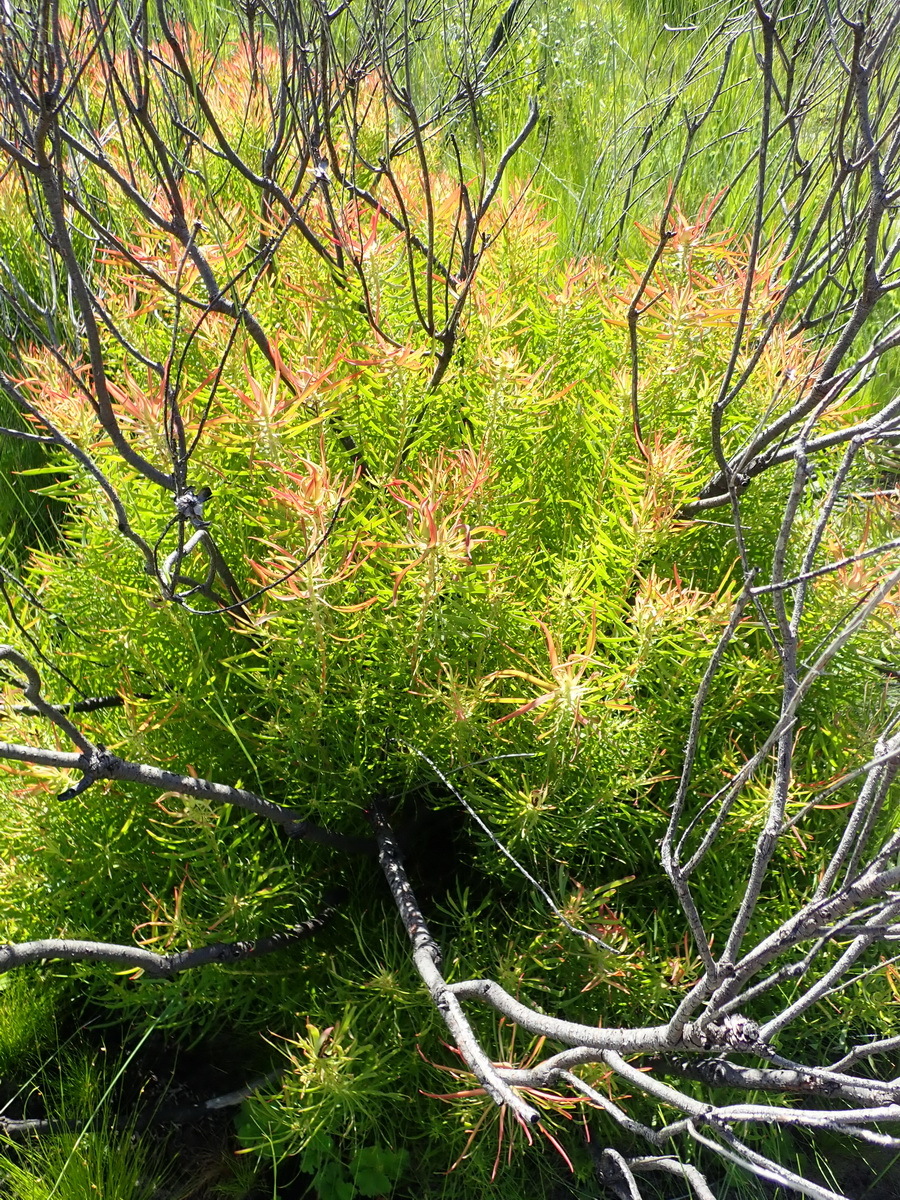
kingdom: Plantae
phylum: Tracheophyta
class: Magnoliopsida
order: Proteales
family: Proteaceae
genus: Leucadendron
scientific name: Leucadendron salignum
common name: Common sunshine conebush
